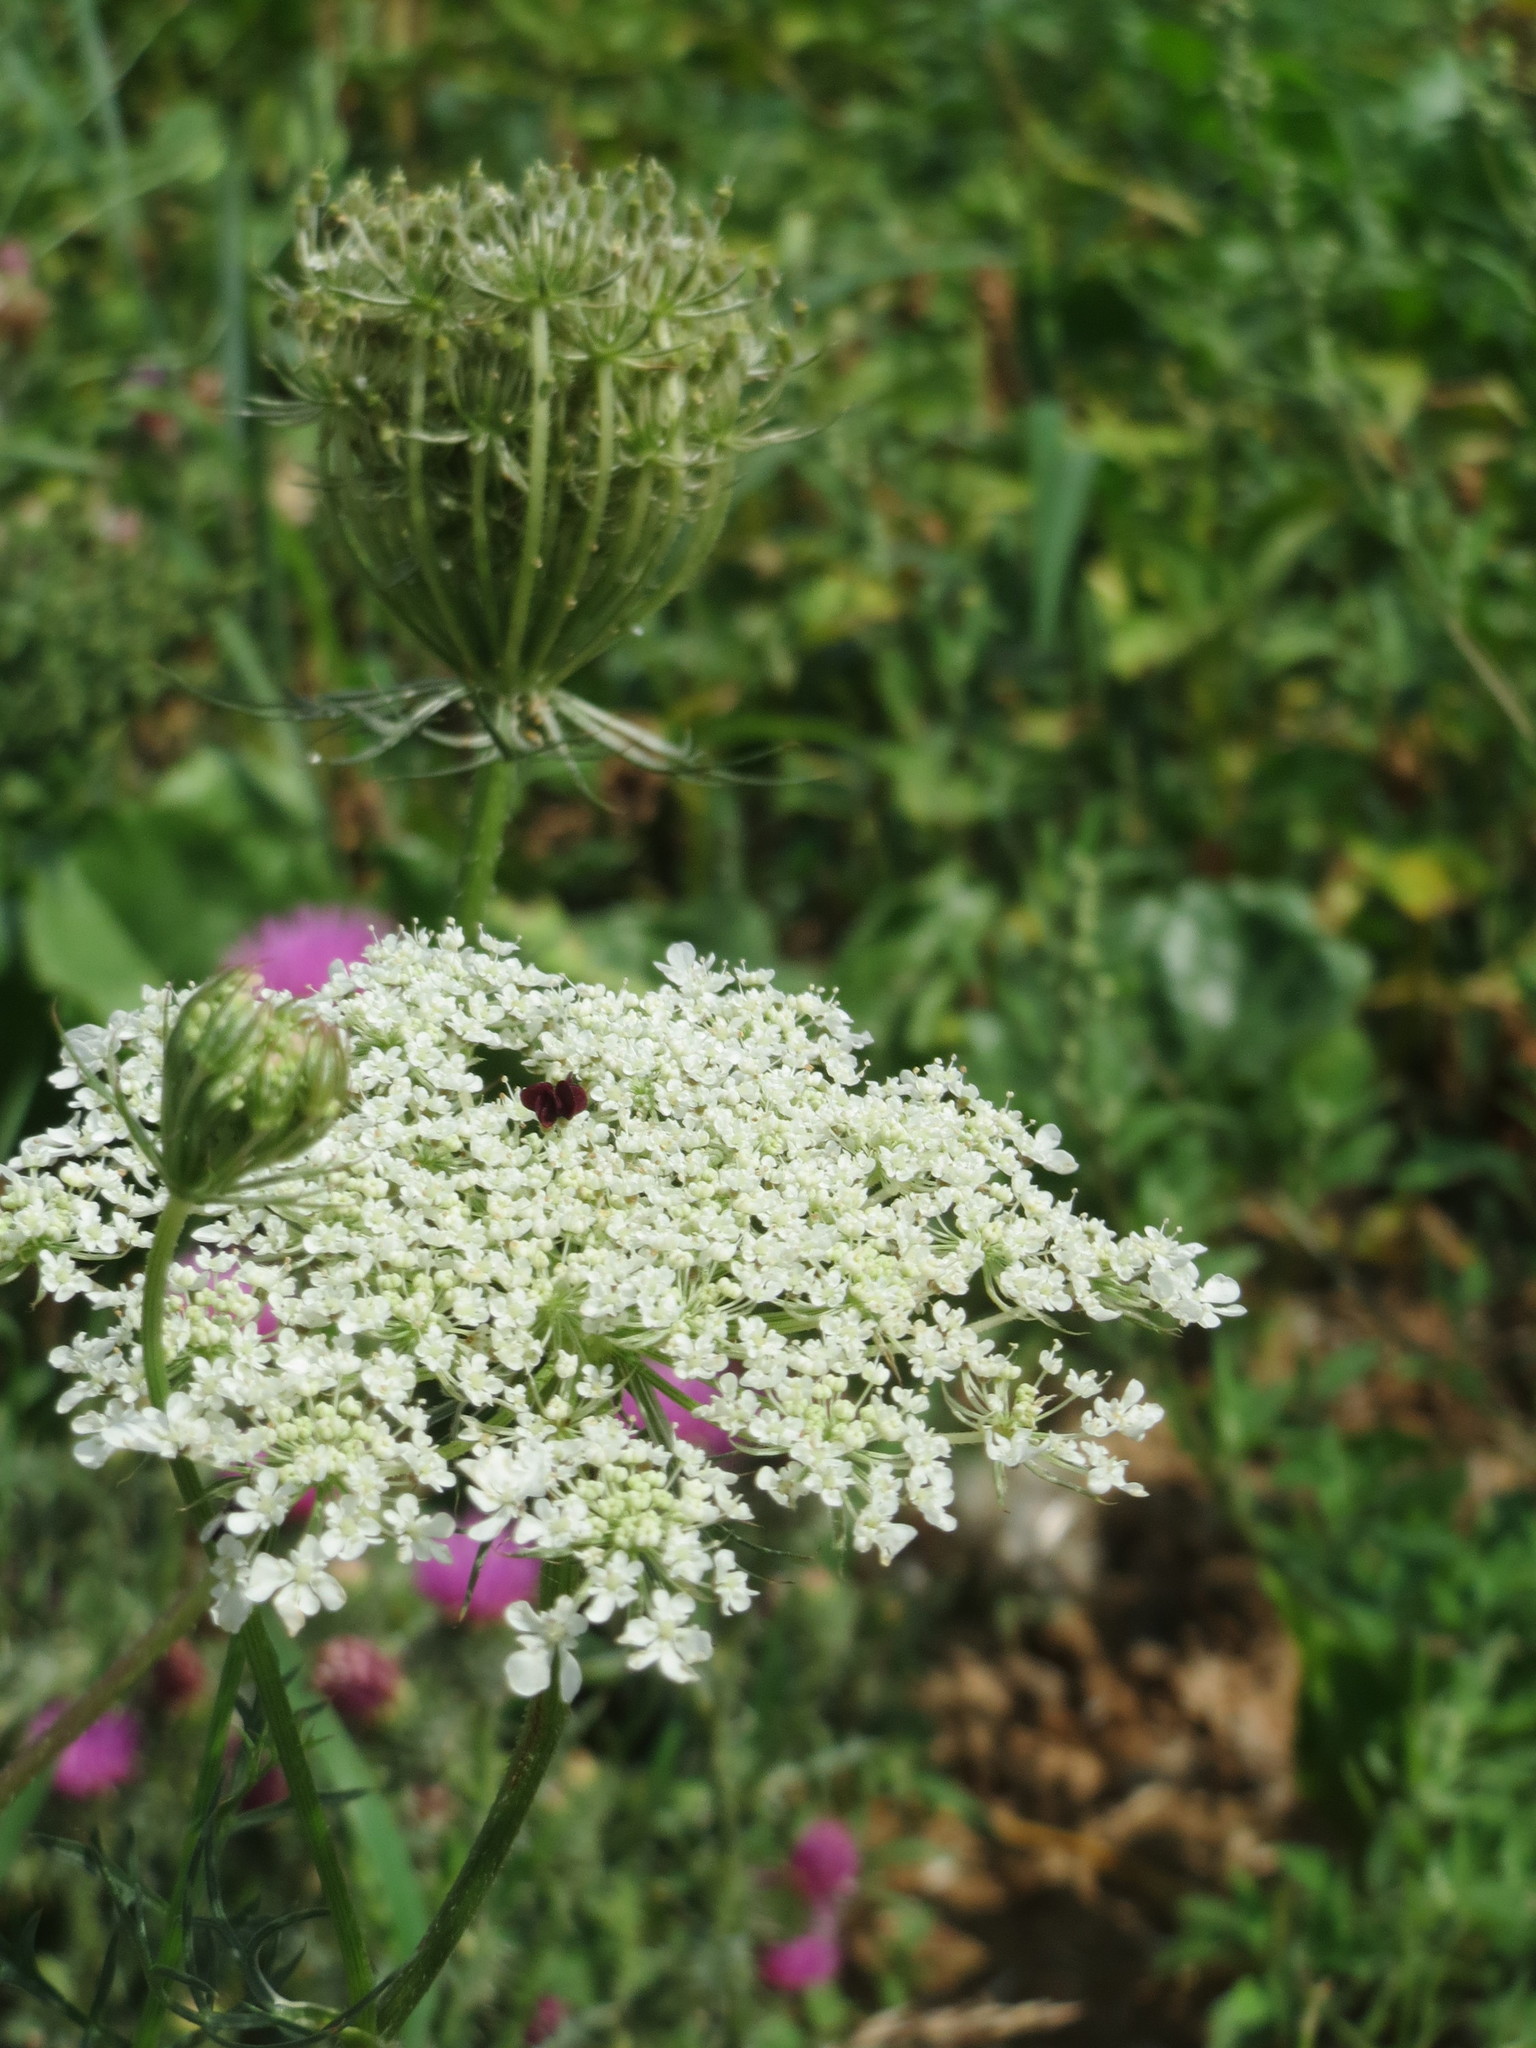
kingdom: Plantae
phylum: Tracheophyta
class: Magnoliopsida
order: Apiales
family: Apiaceae
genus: Daucus
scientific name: Daucus carota
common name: Wild carrot
